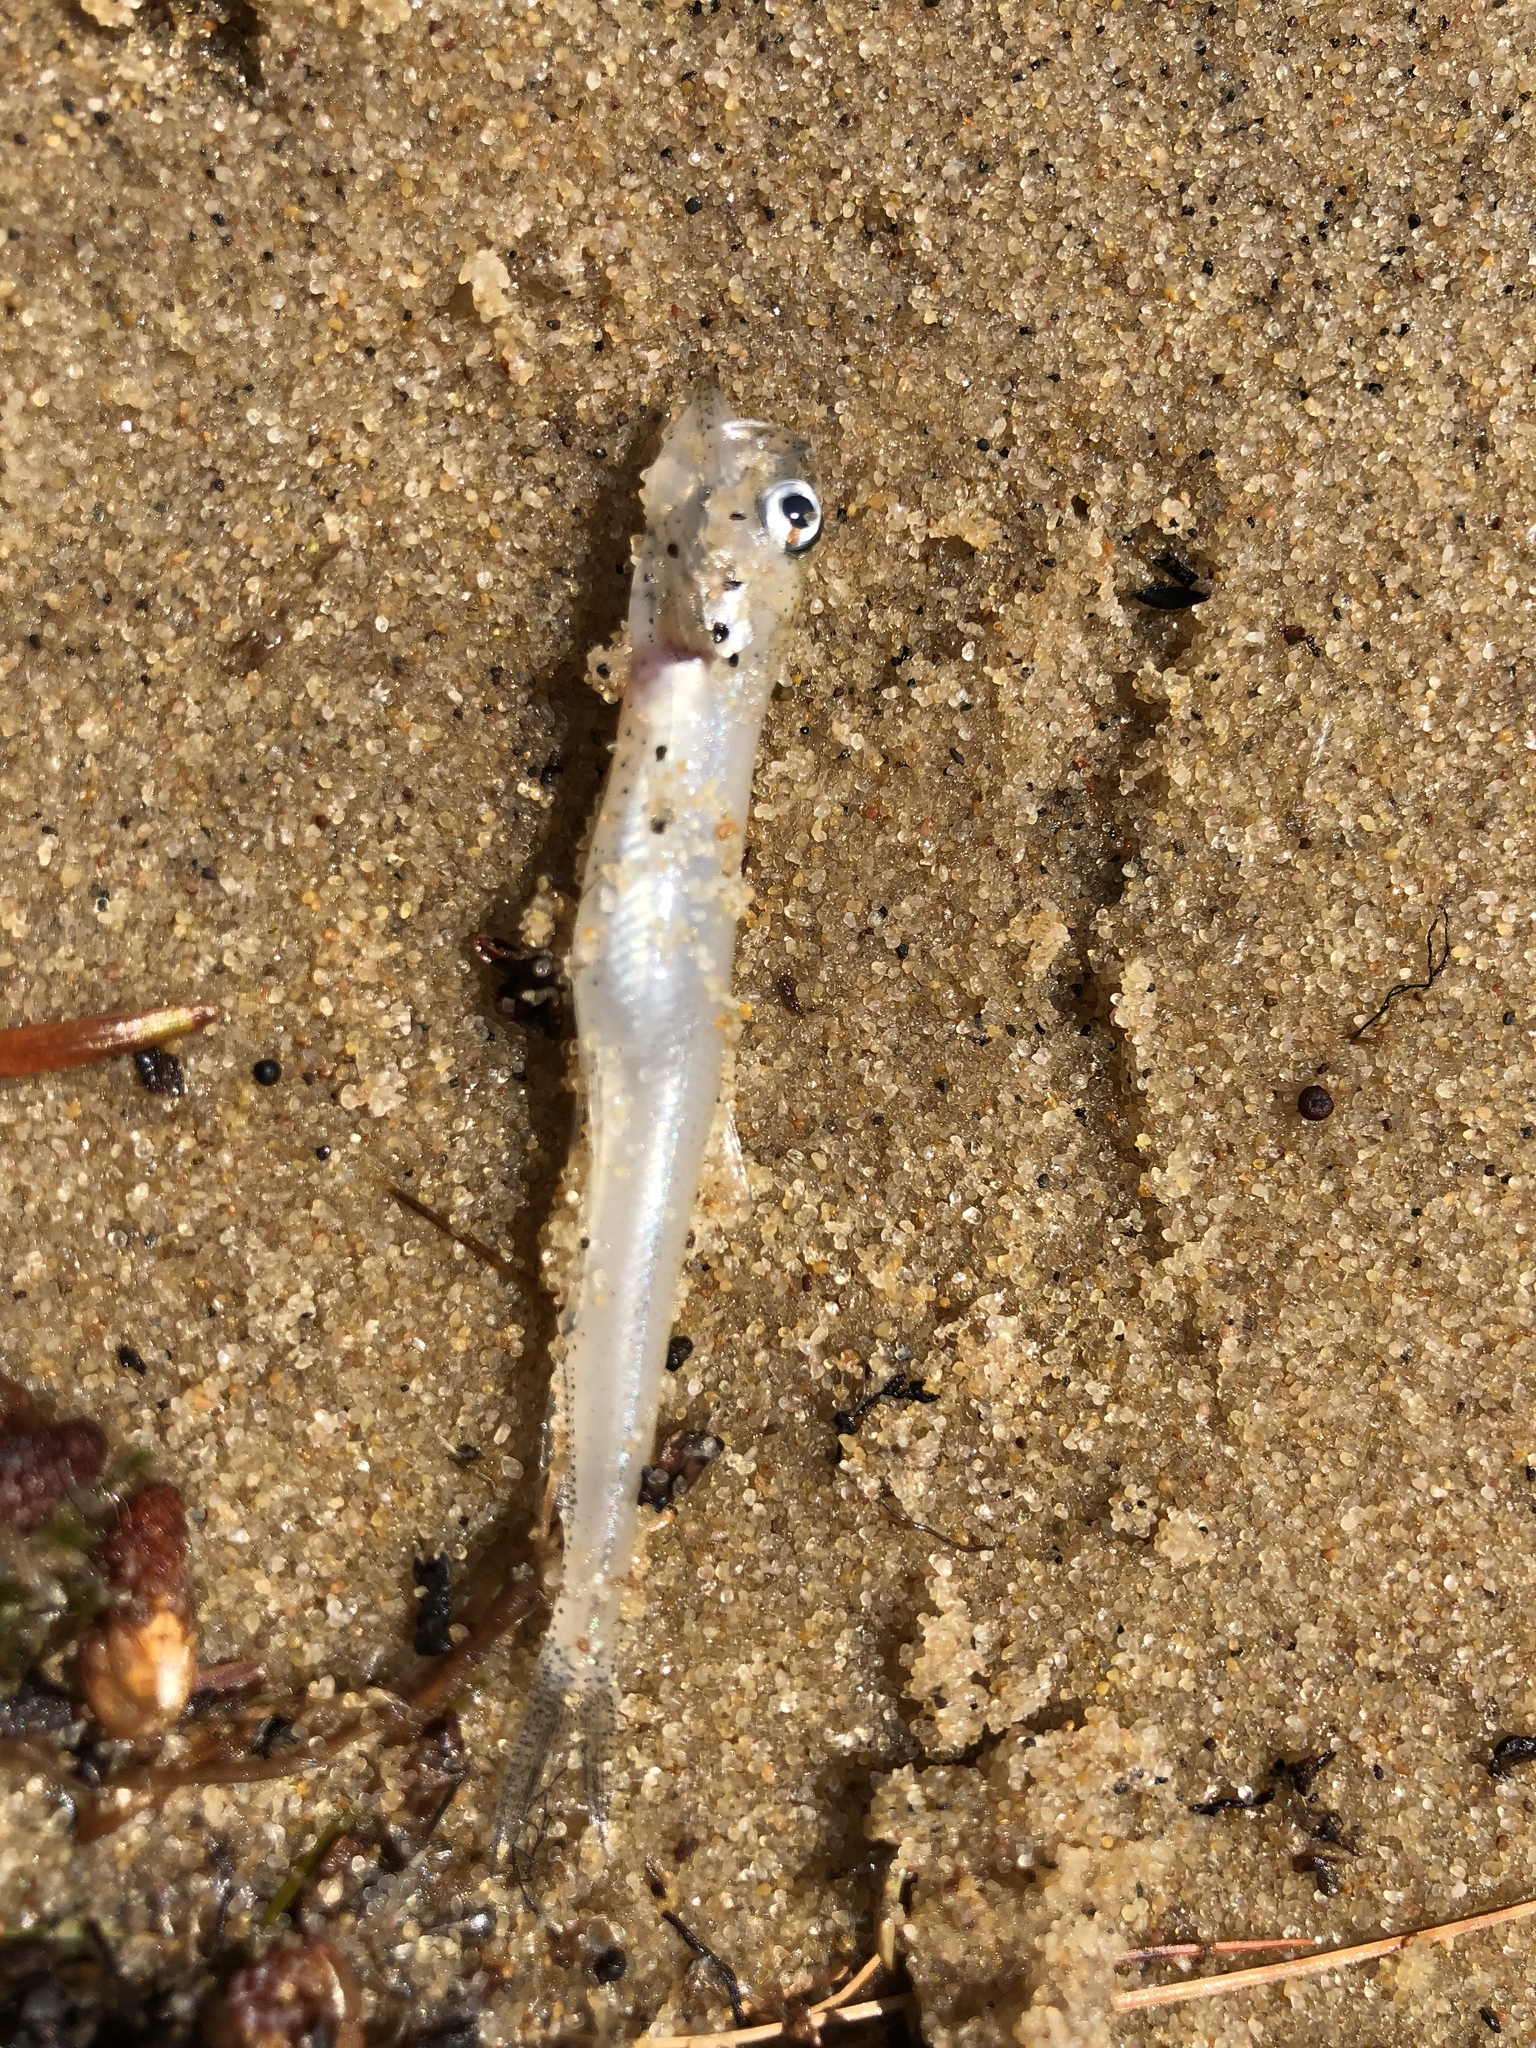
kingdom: Animalia
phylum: Chordata
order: Osmeriformes
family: Osmeridae
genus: Osmerus
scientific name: Osmerus mordax
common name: Rainbow smelt
